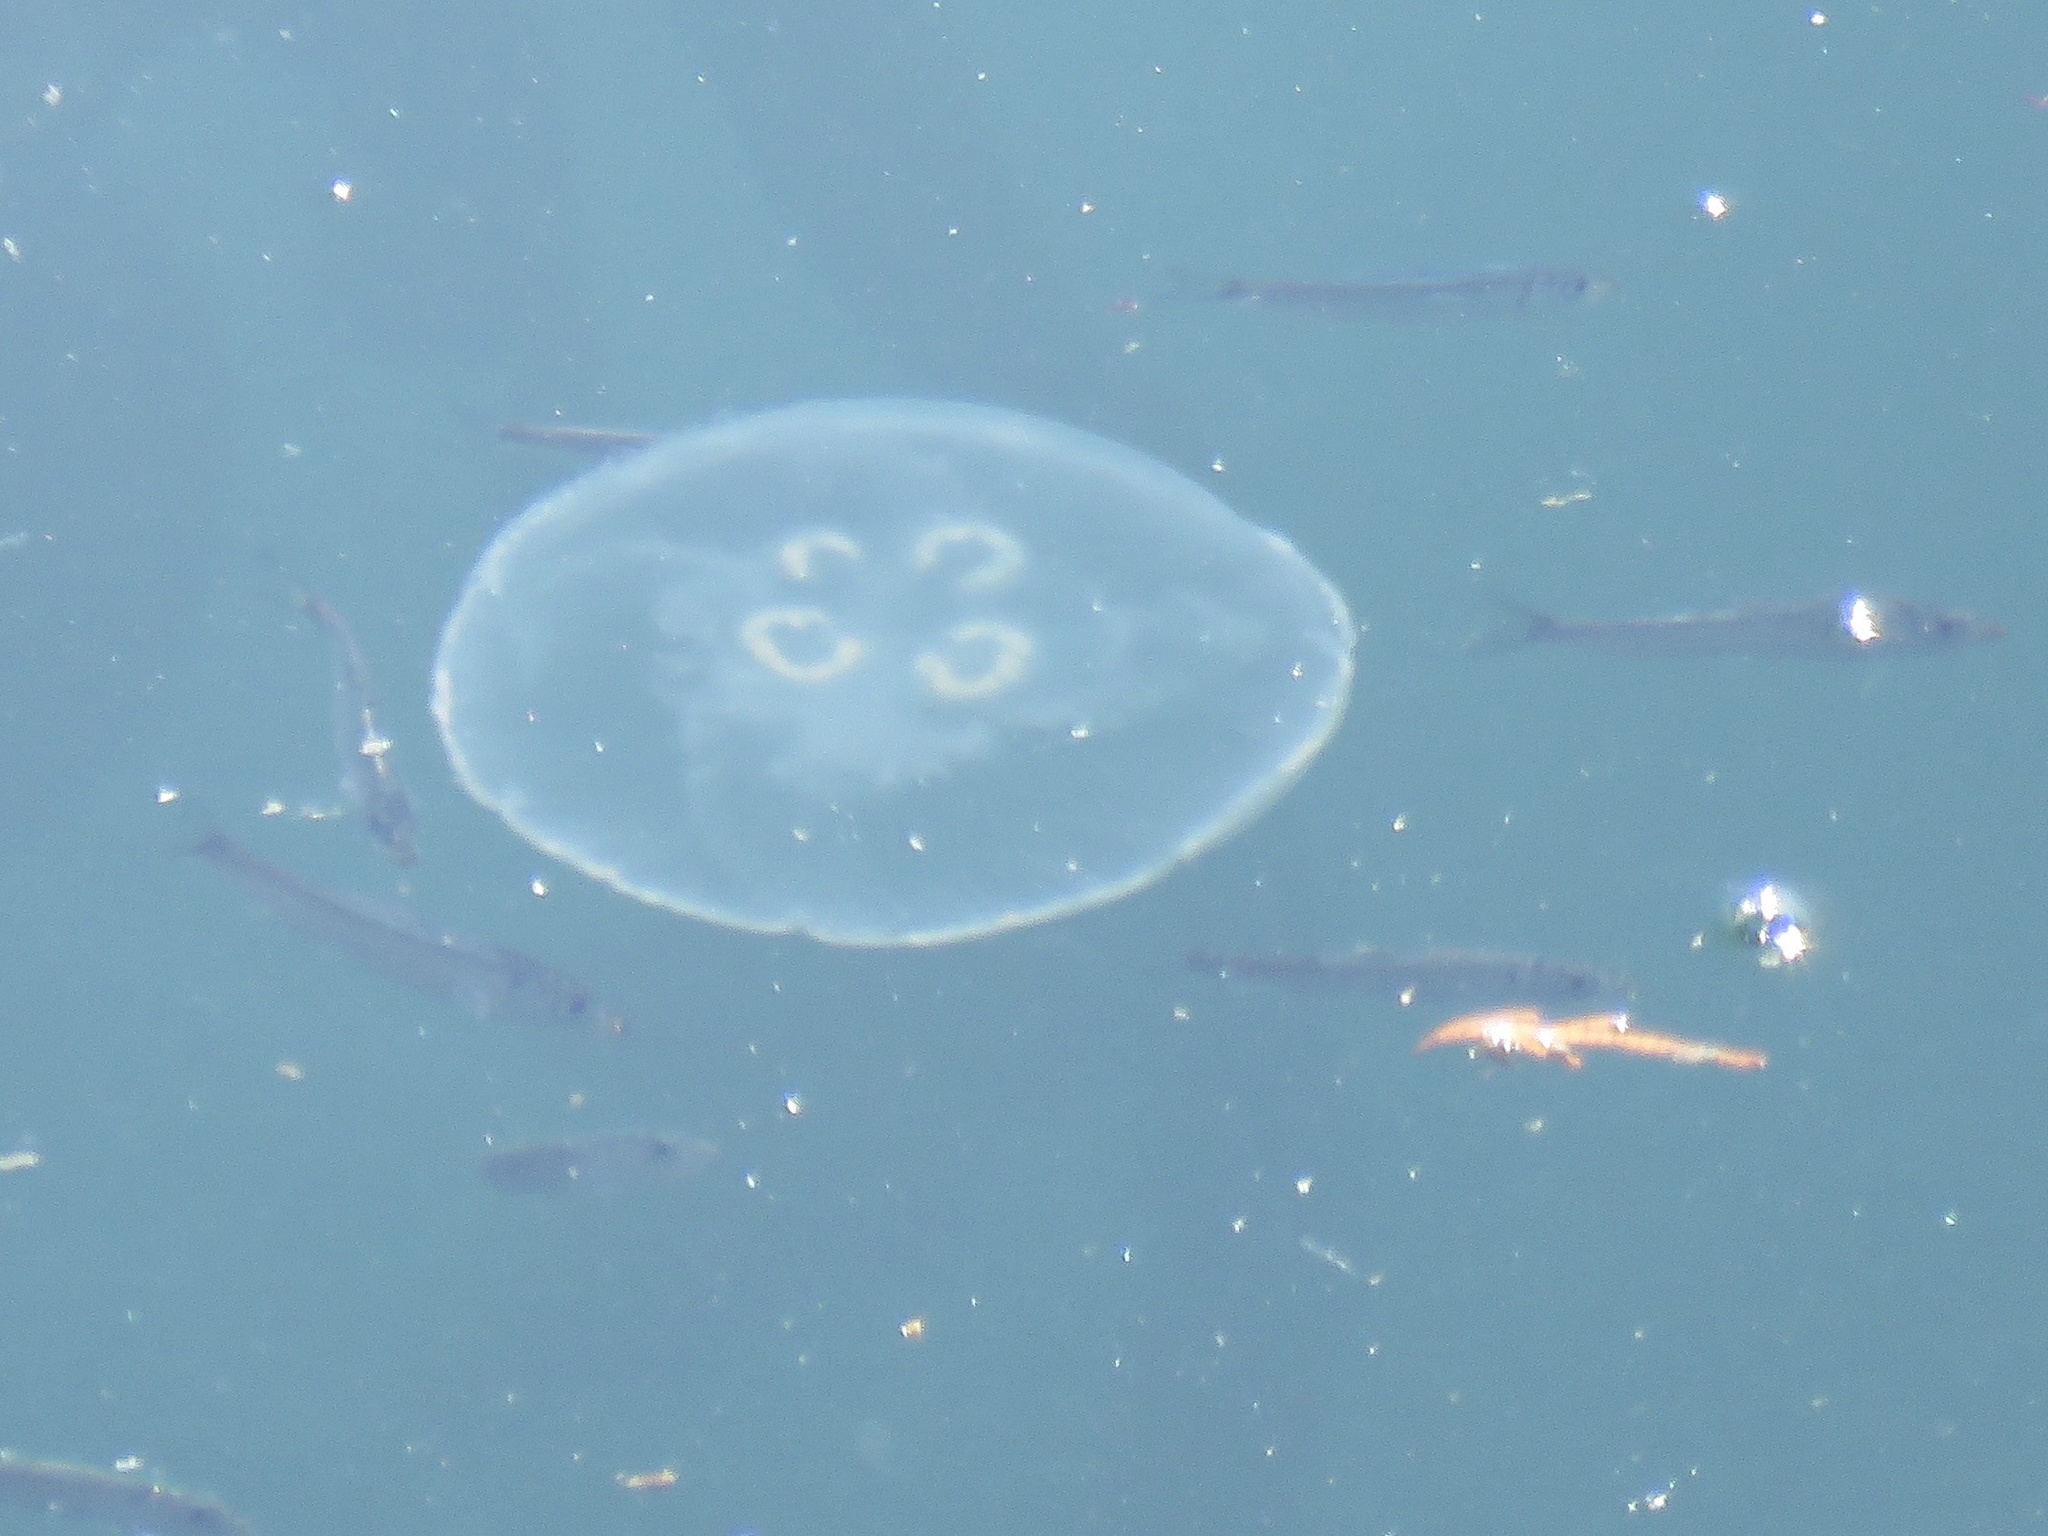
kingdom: Animalia
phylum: Cnidaria
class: Scyphozoa
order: Semaeostomeae
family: Ulmaridae
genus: Aurelia
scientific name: Aurelia labiata
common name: Pacific moon jelly
